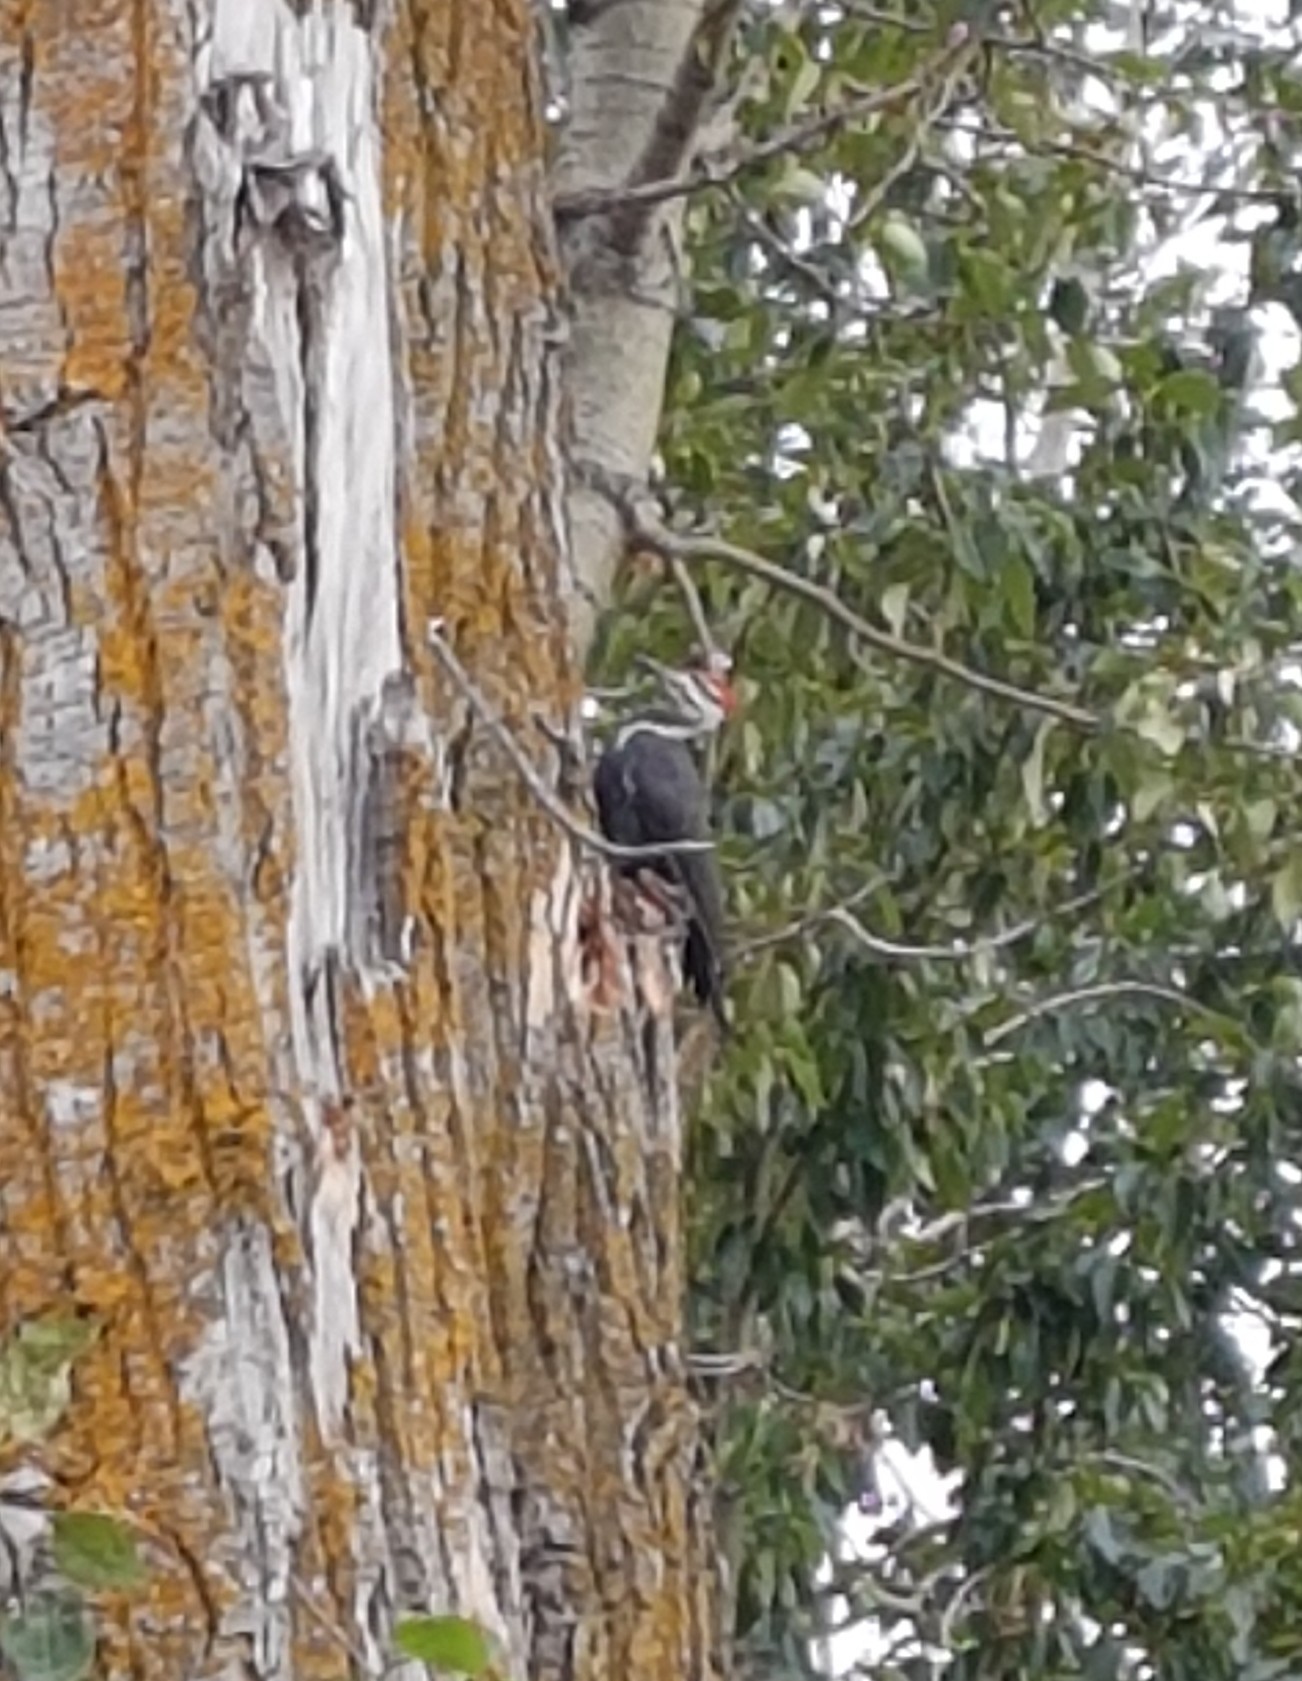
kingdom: Animalia
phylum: Chordata
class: Aves
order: Piciformes
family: Picidae
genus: Dryocopus
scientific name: Dryocopus pileatus
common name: Pileated woodpecker
